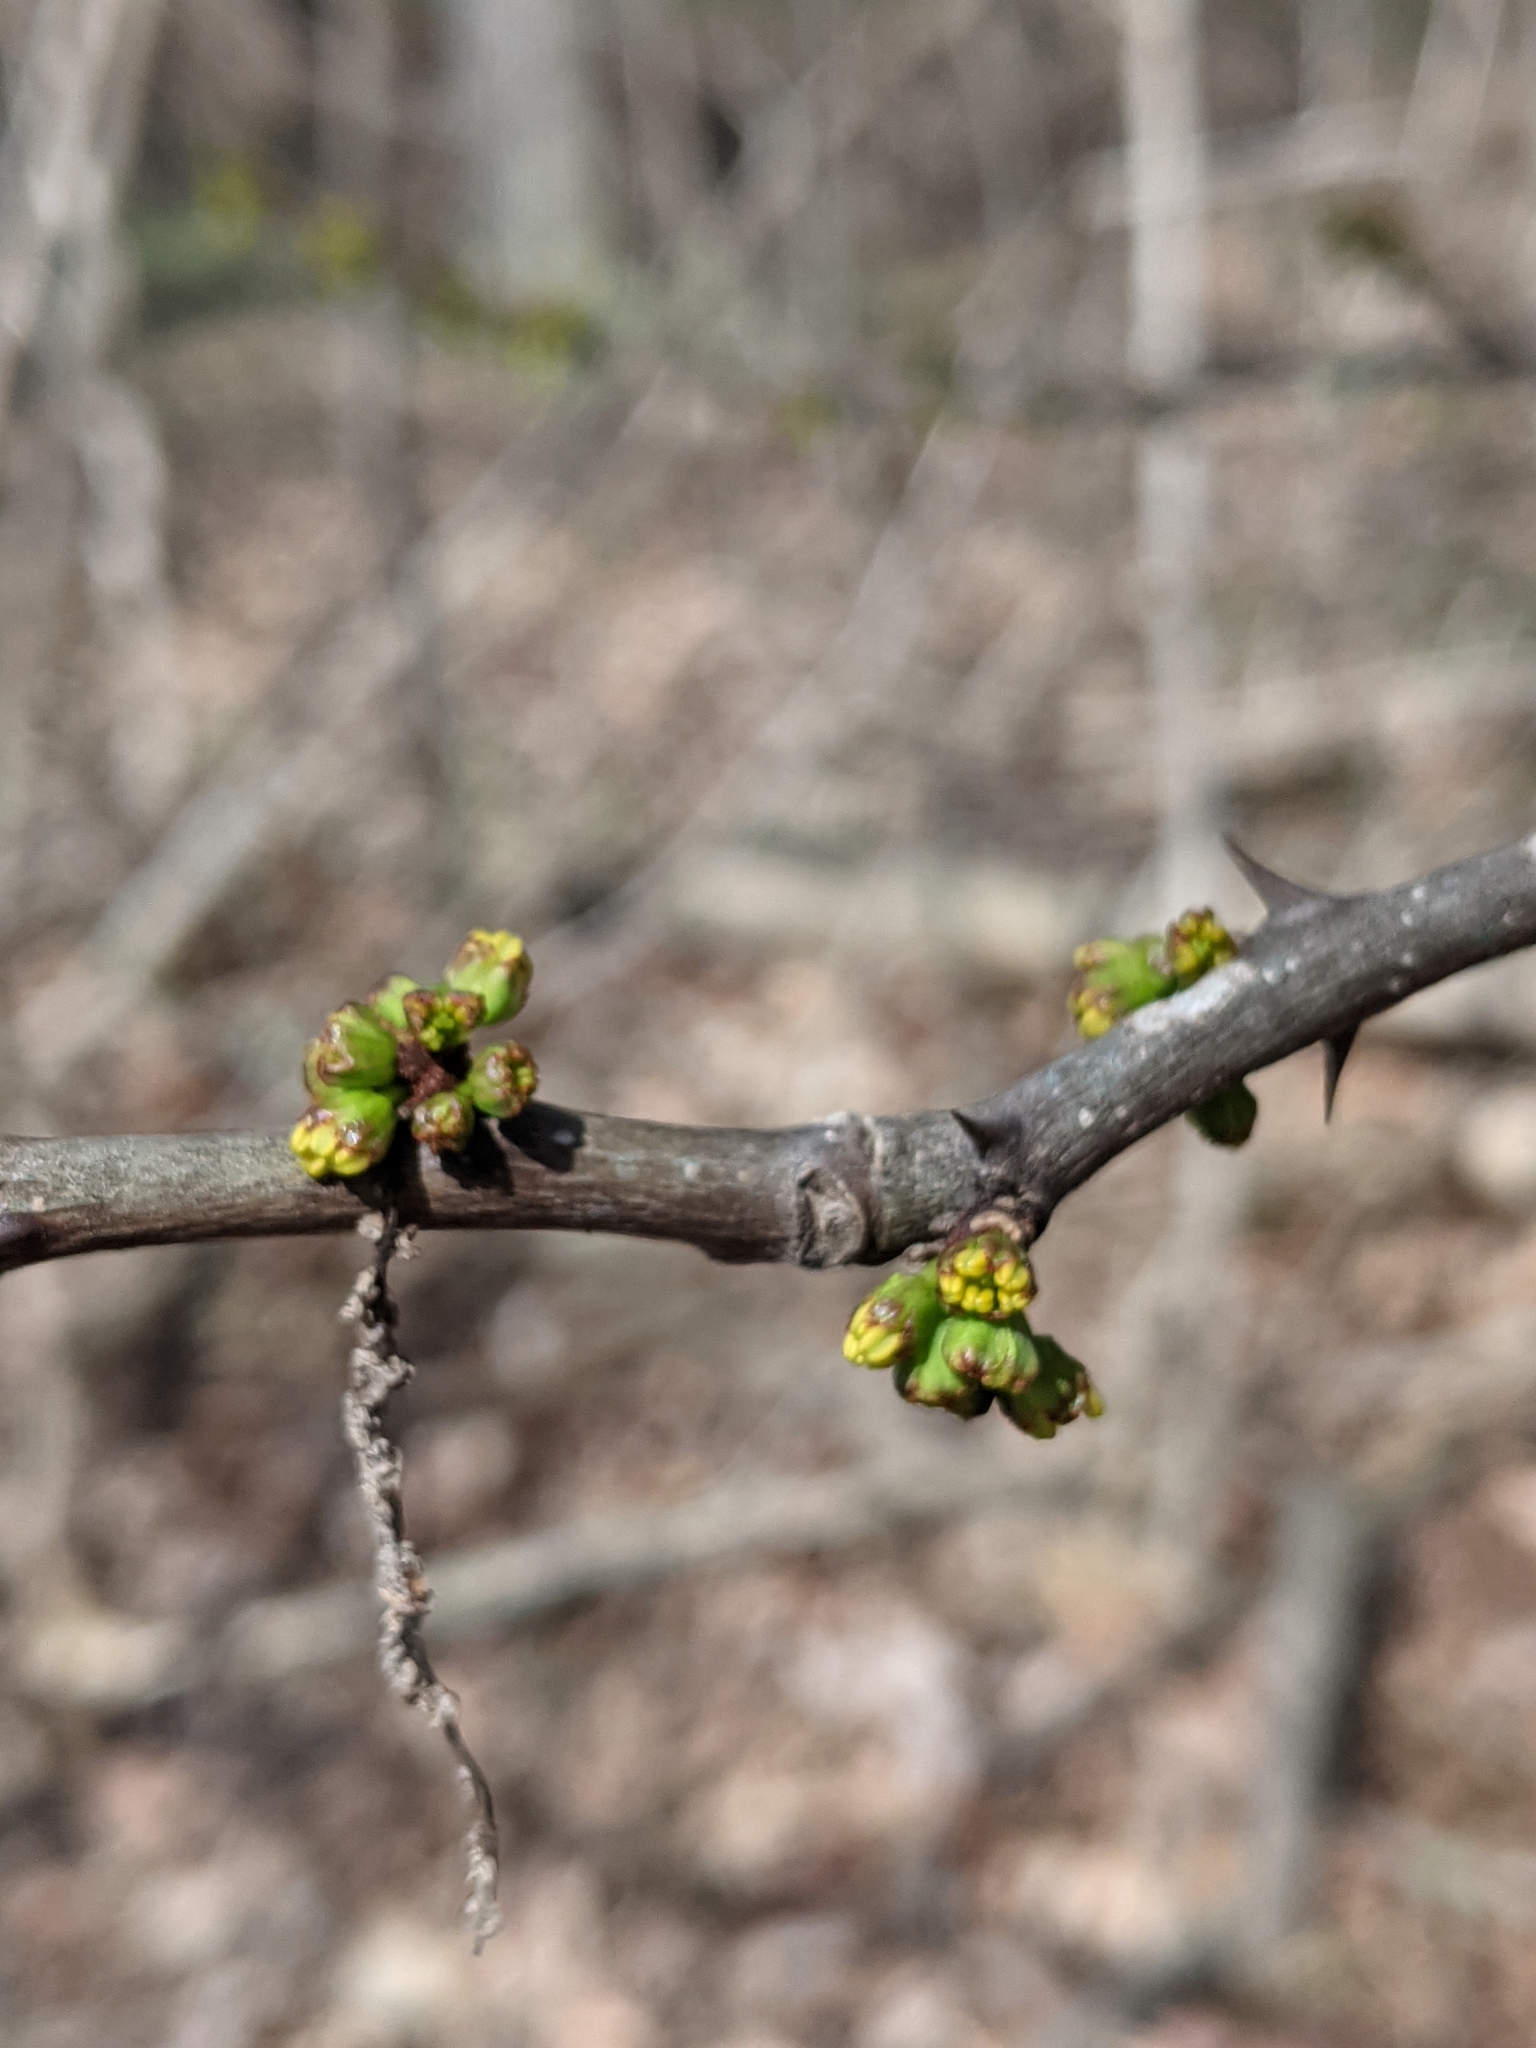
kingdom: Plantae
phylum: Tracheophyta
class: Magnoliopsida
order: Sapindales
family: Rutaceae
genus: Zanthoxylum
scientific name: Zanthoxylum americanum
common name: Northern prickly-ash
